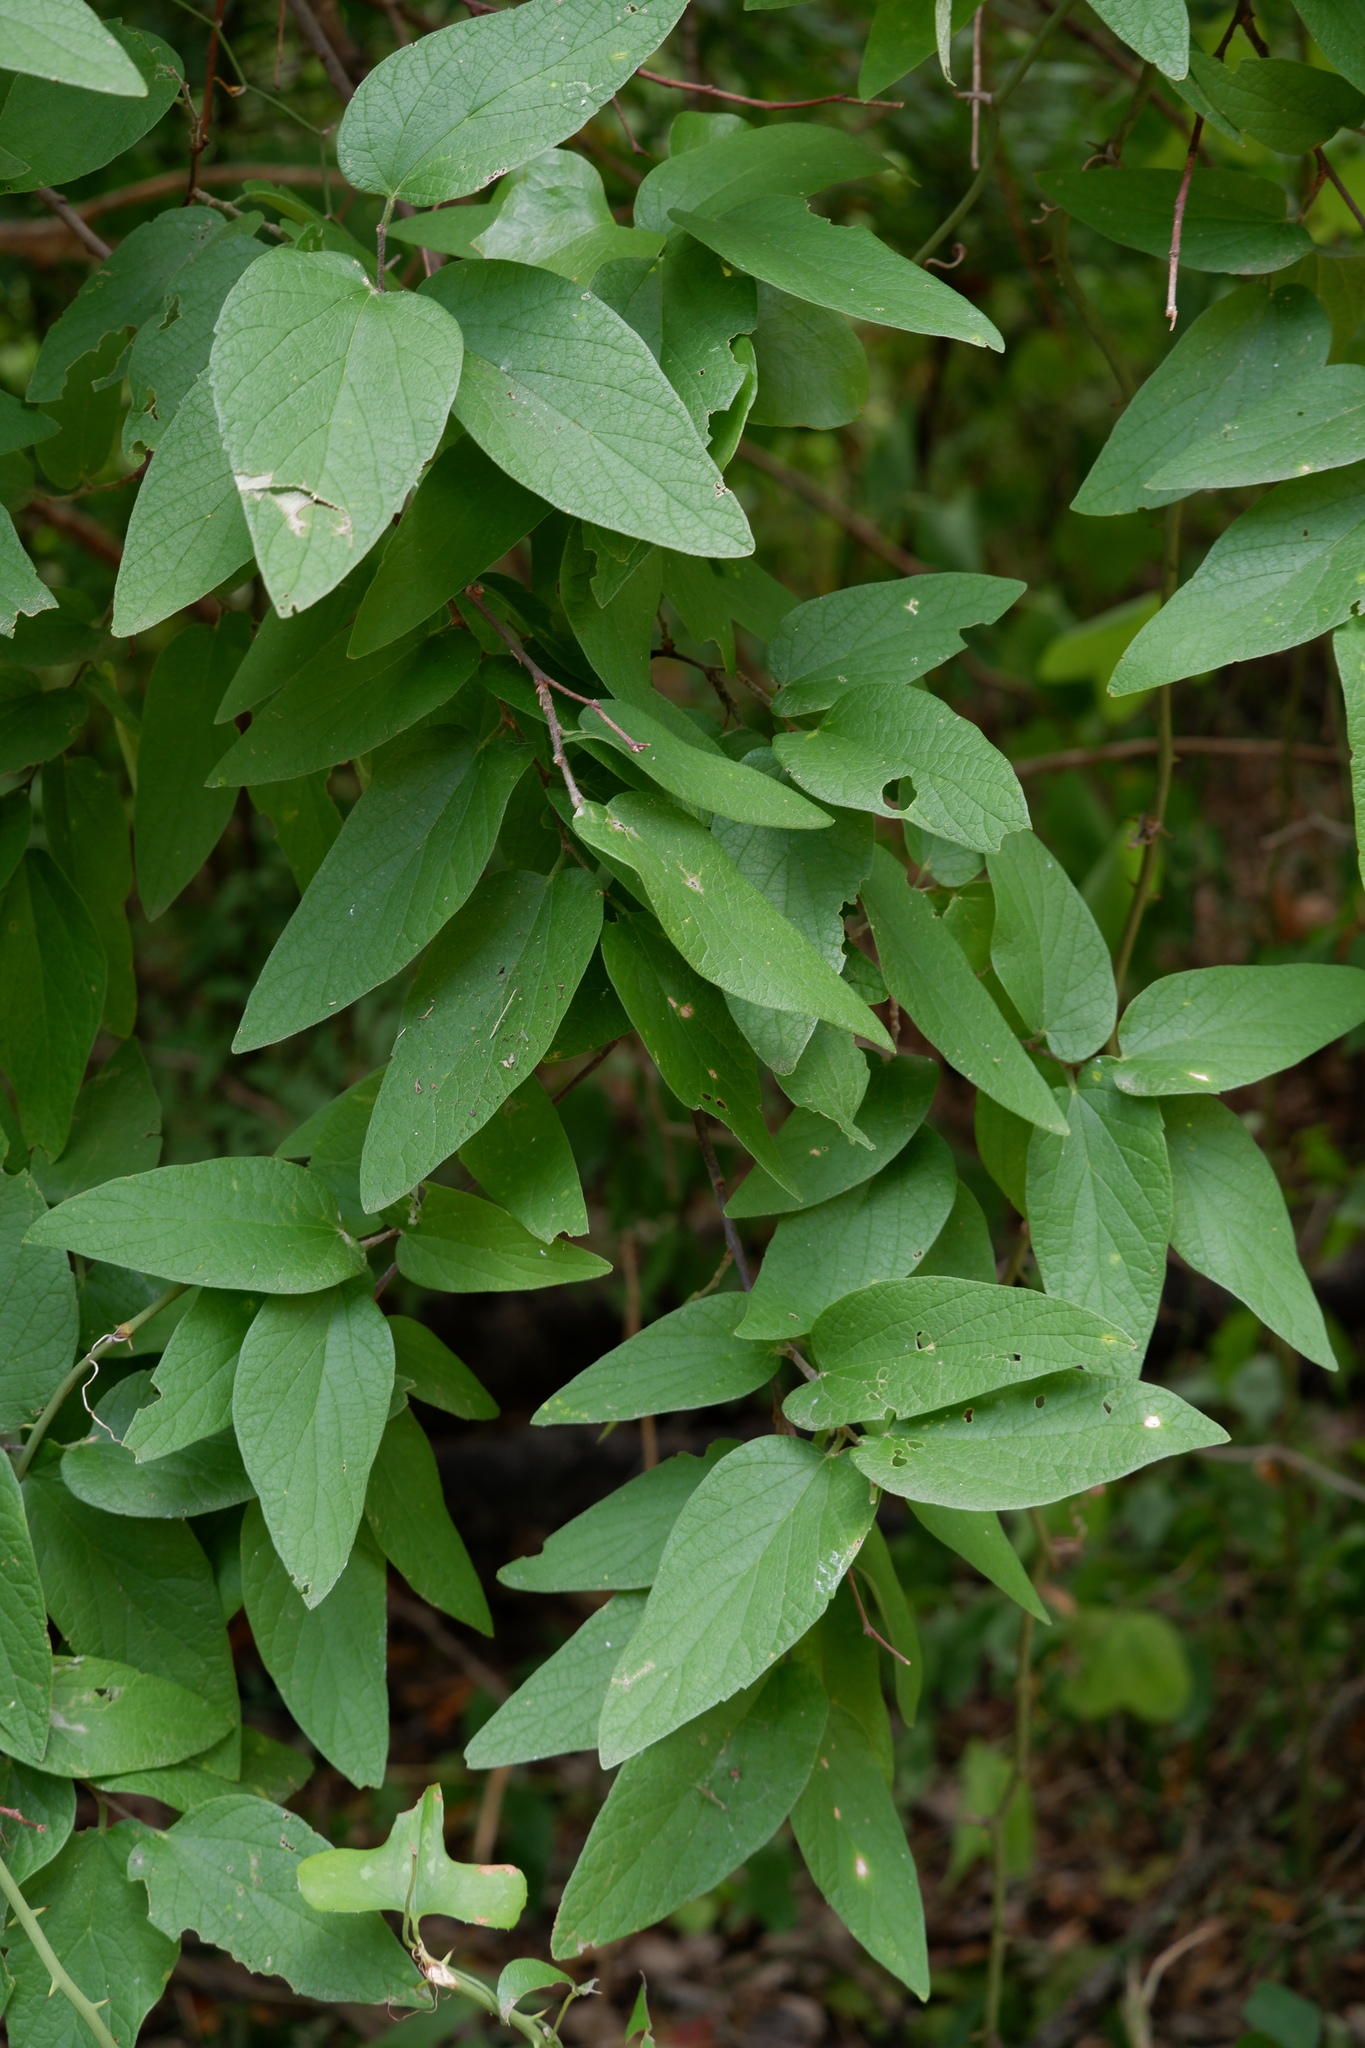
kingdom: Plantae
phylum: Tracheophyta
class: Magnoliopsida
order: Rosales
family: Cannabaceae
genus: Celtis
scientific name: Celtis reticulata
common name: Netleaf hackberry
